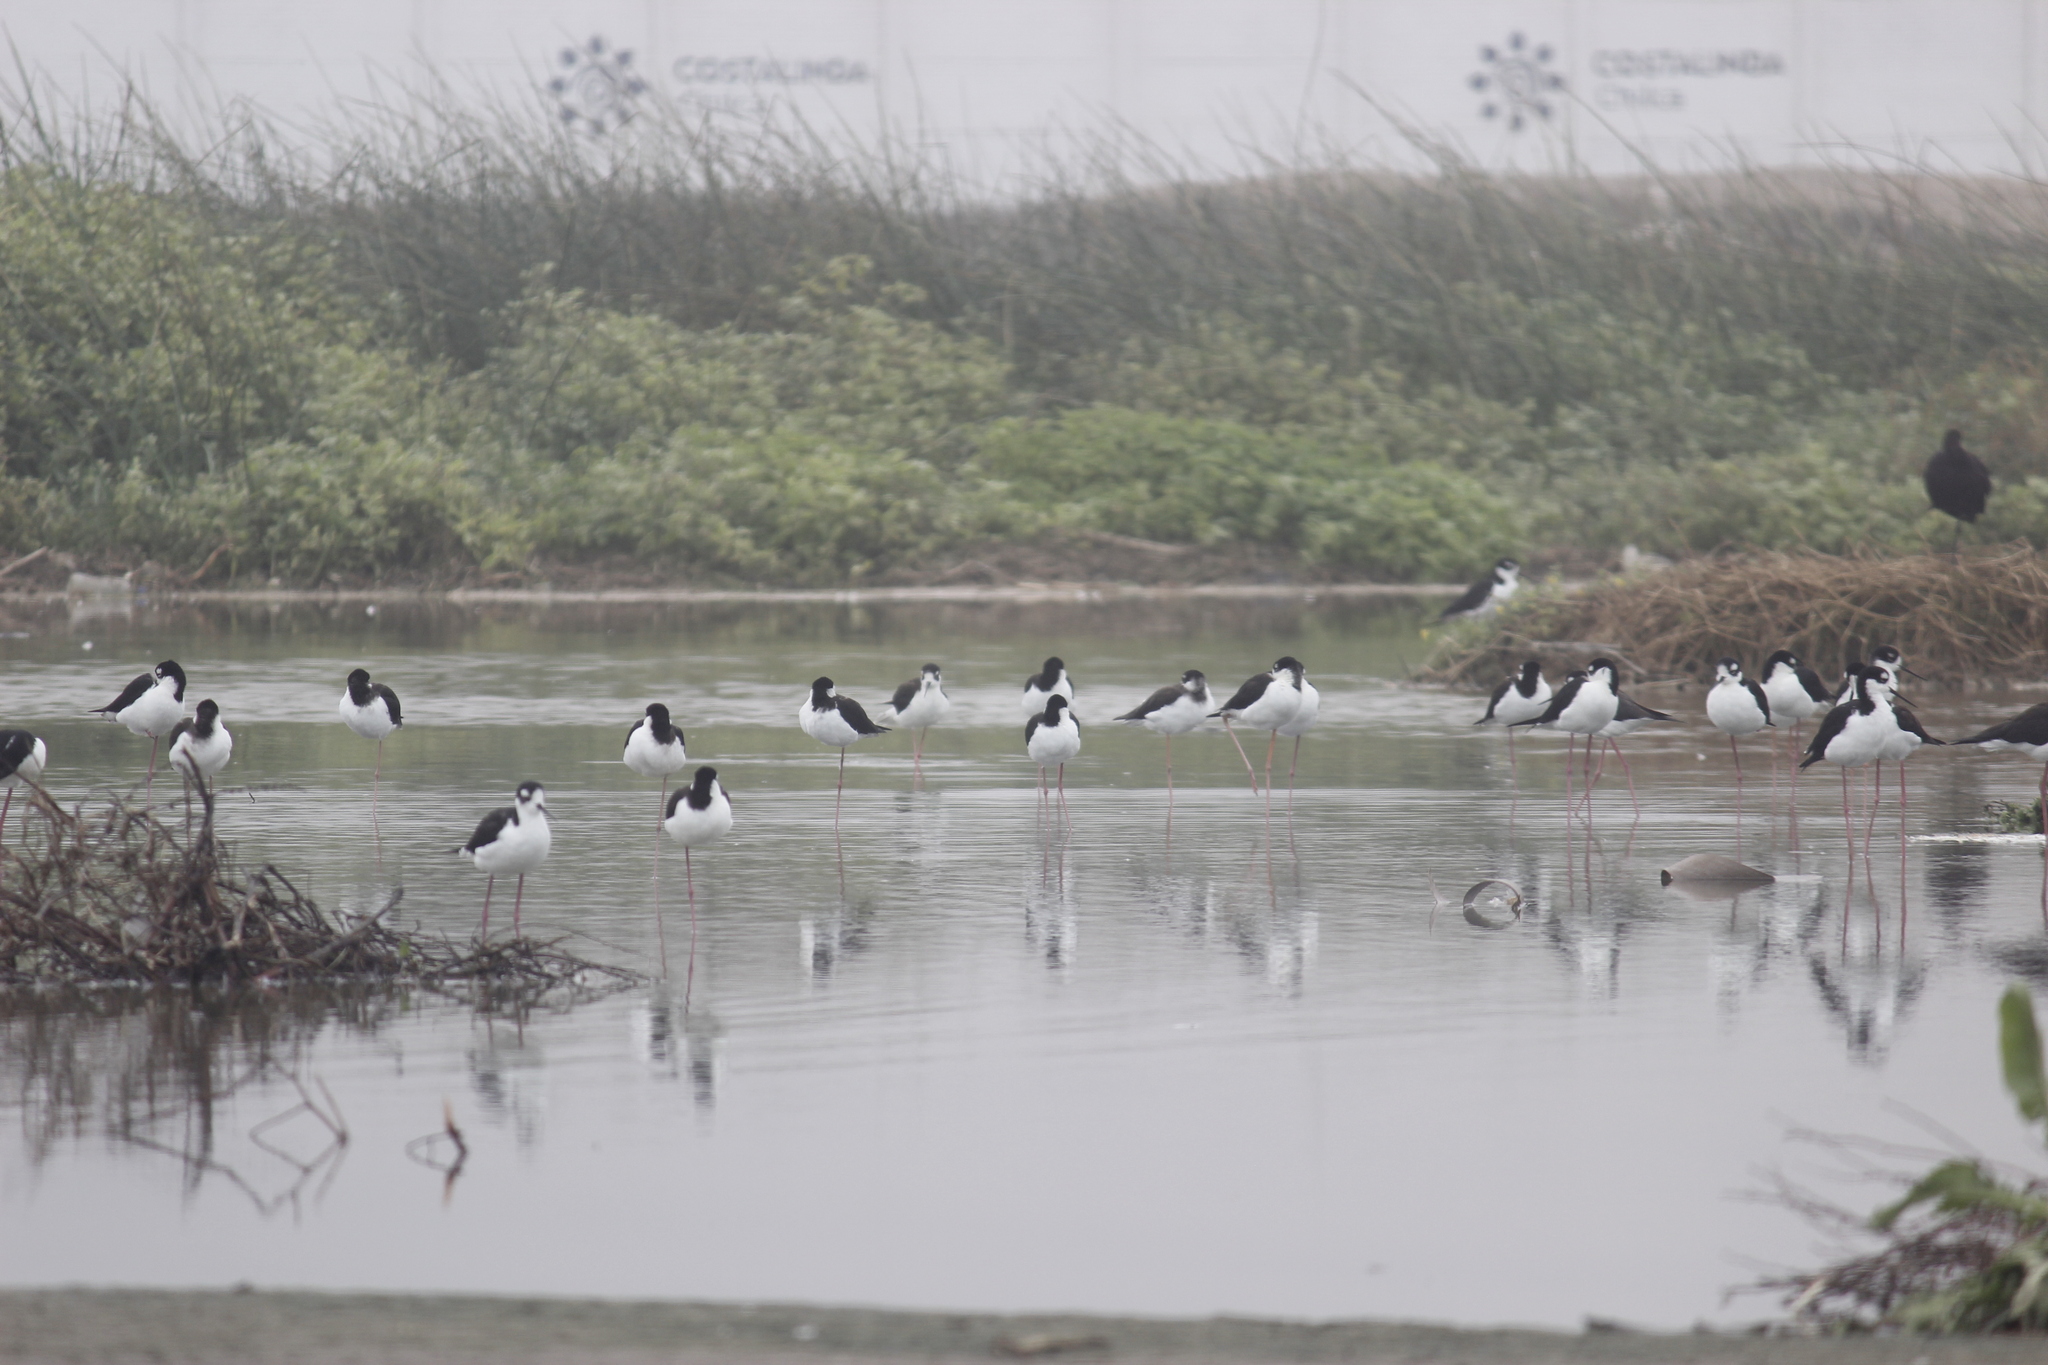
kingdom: Animalia
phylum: Chordata
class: Aves
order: Charadriiformes
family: Recurvirostridae
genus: Himantopus
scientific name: Himantopus mexicanus
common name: Black-necked stilt
